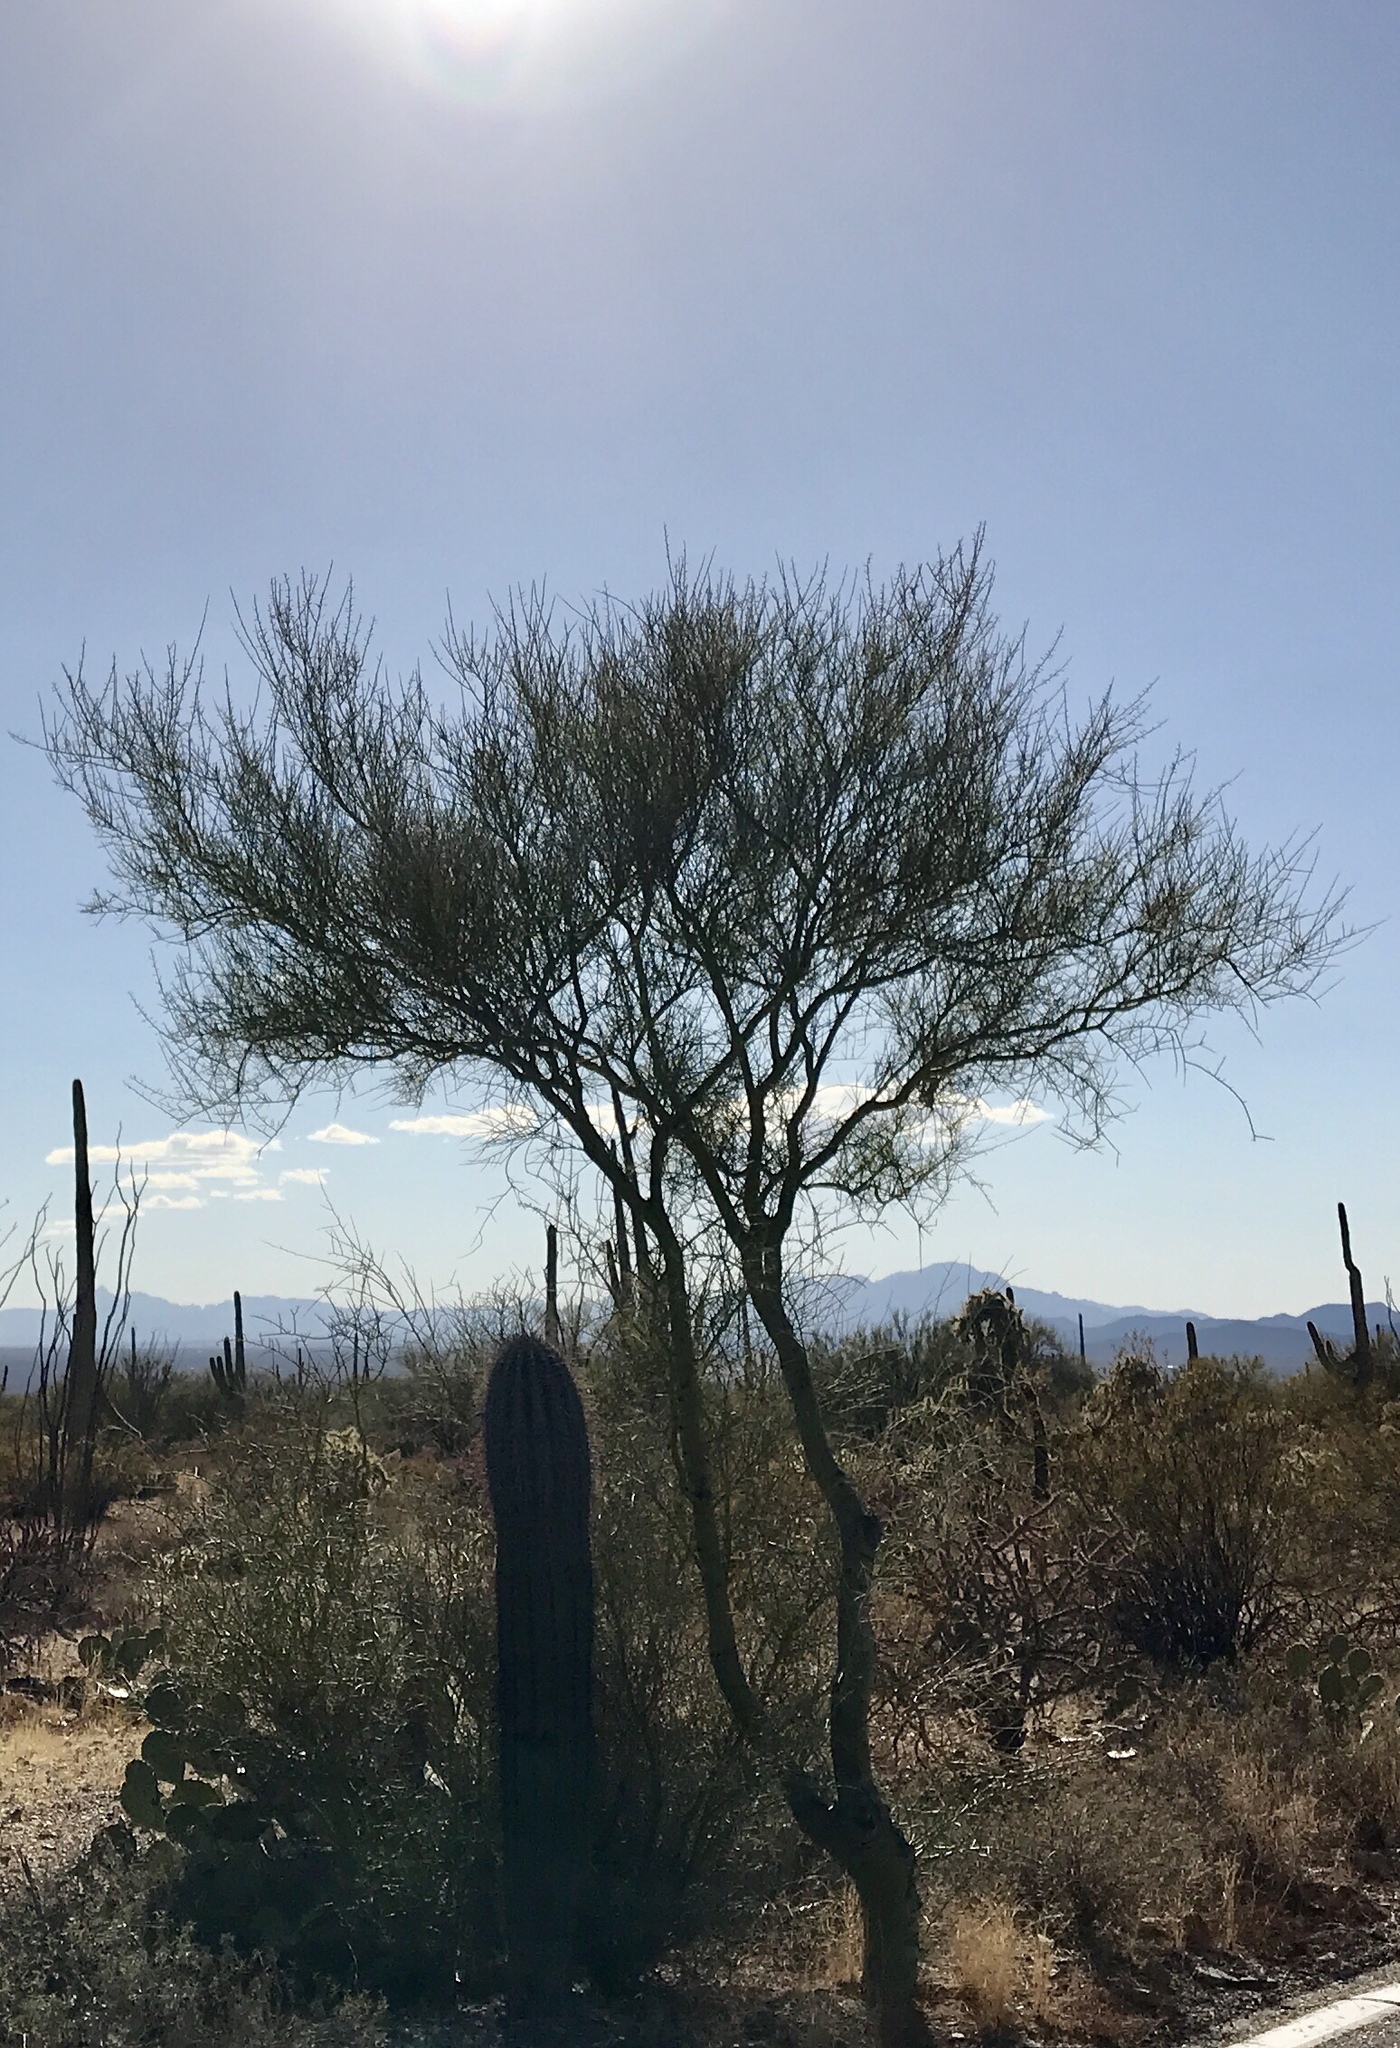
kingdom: Plantae
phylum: Tracheophyta
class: Magnoliopsida
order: Fabales
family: Fabaceae
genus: Parkinsonia
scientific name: Parkinsonia microphylla
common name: Yellow paloverde
